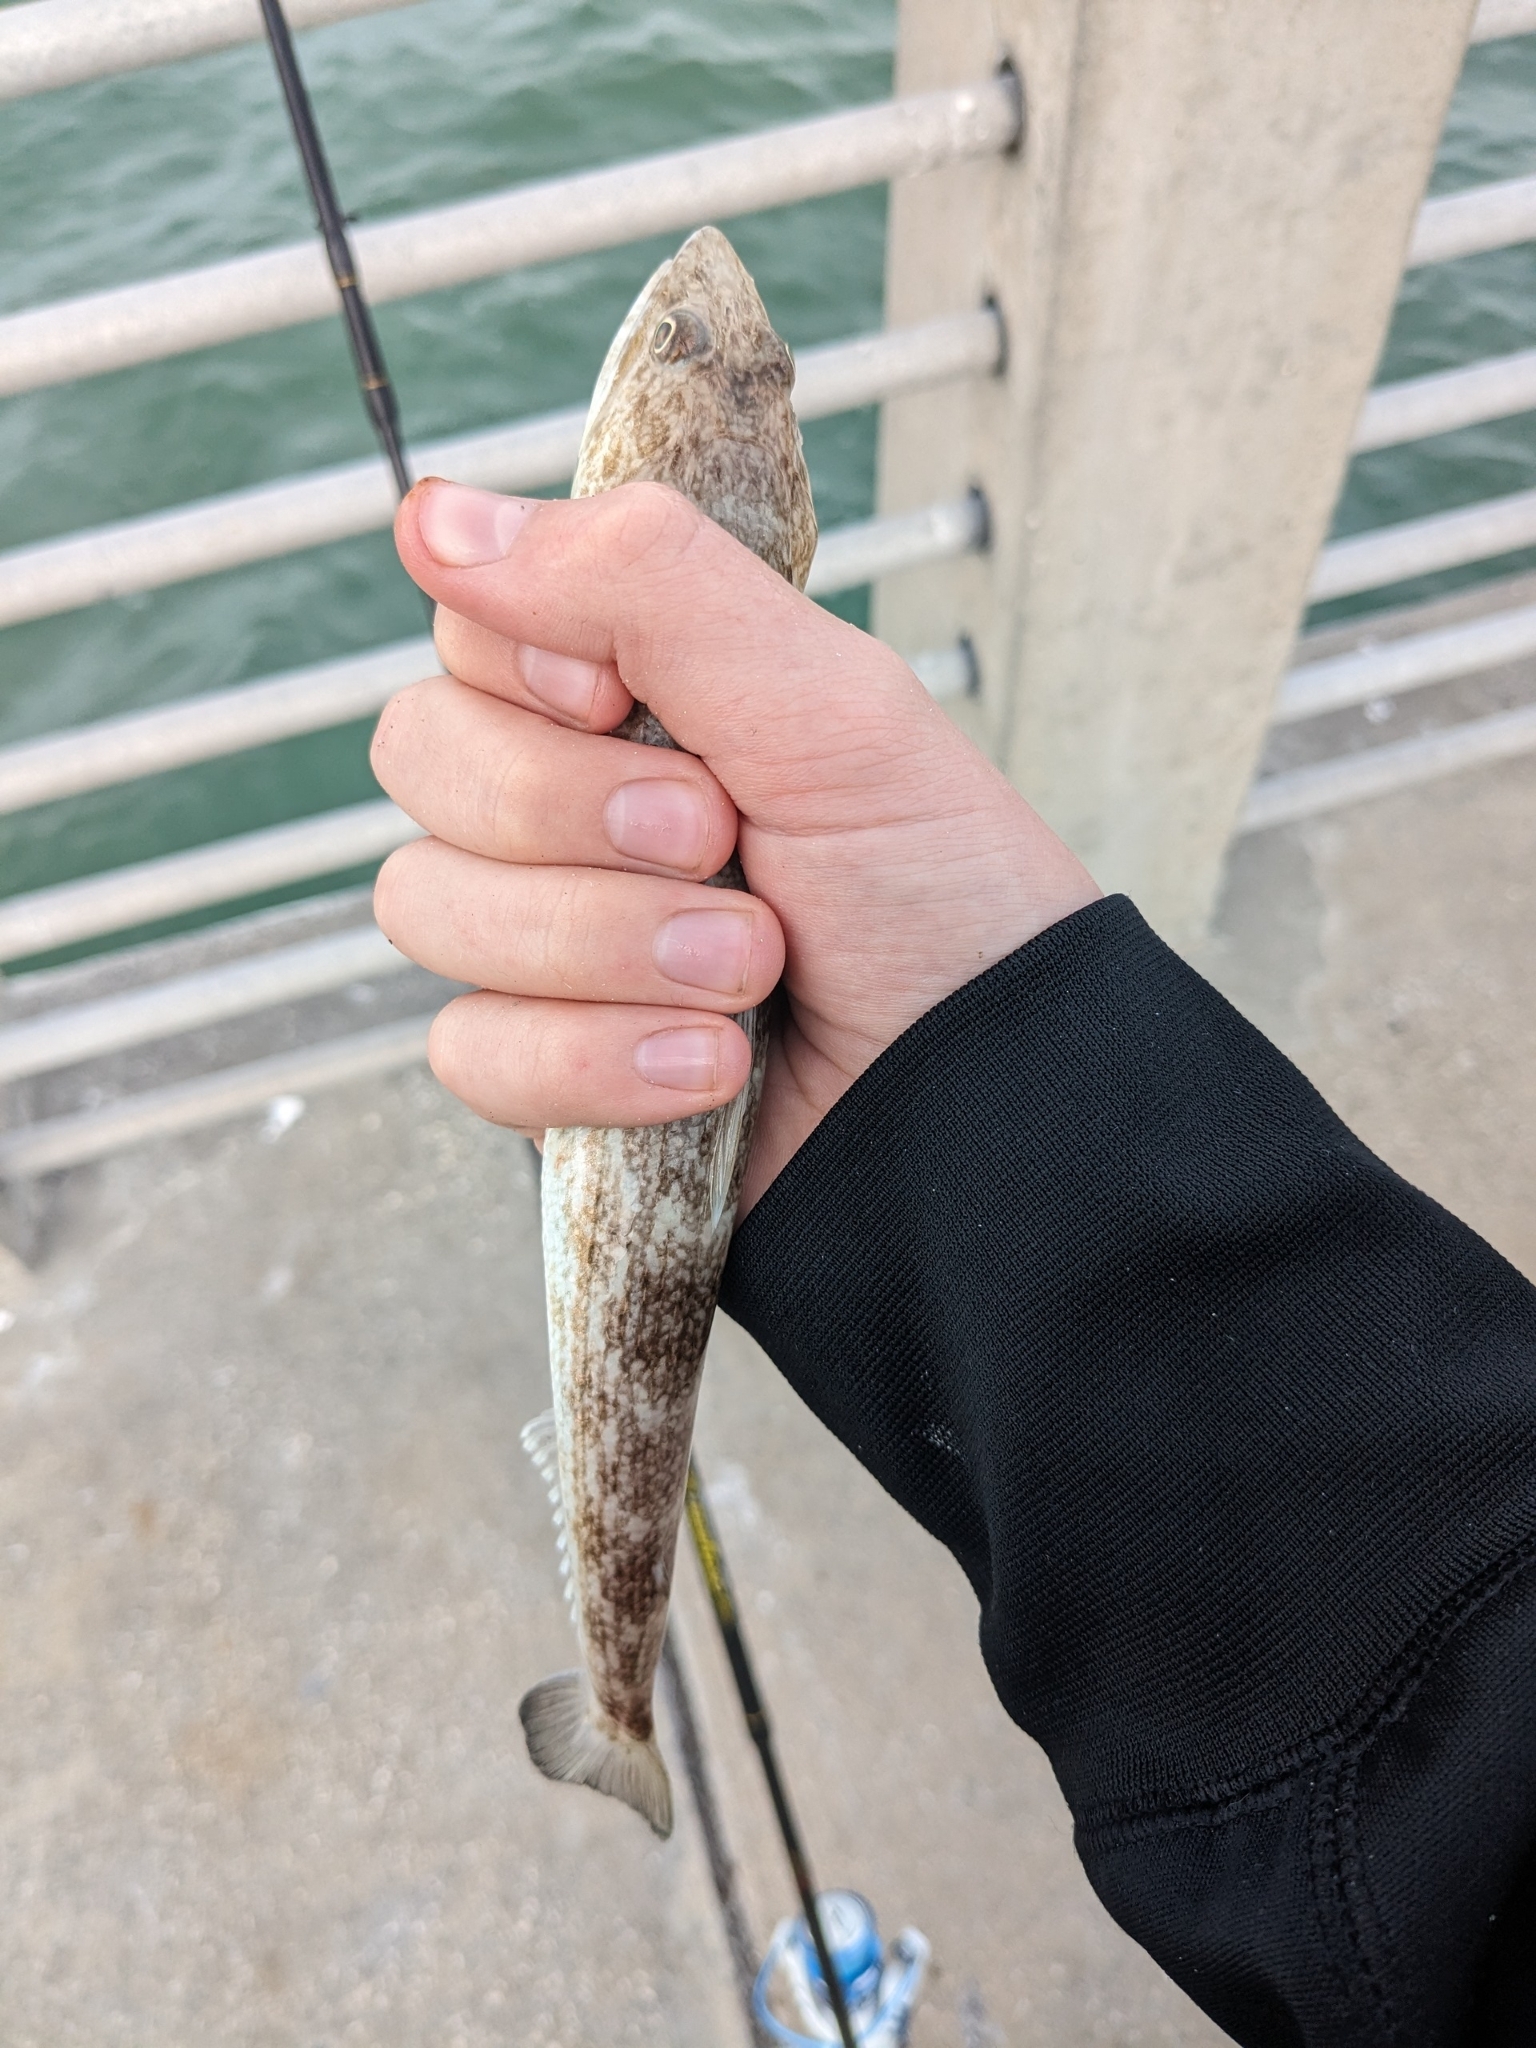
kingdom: Animalia
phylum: Chordata
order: Aulopiformes
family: Synodontidae
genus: Synodus
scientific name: Synodus foetens
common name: Inshore lizardfish
